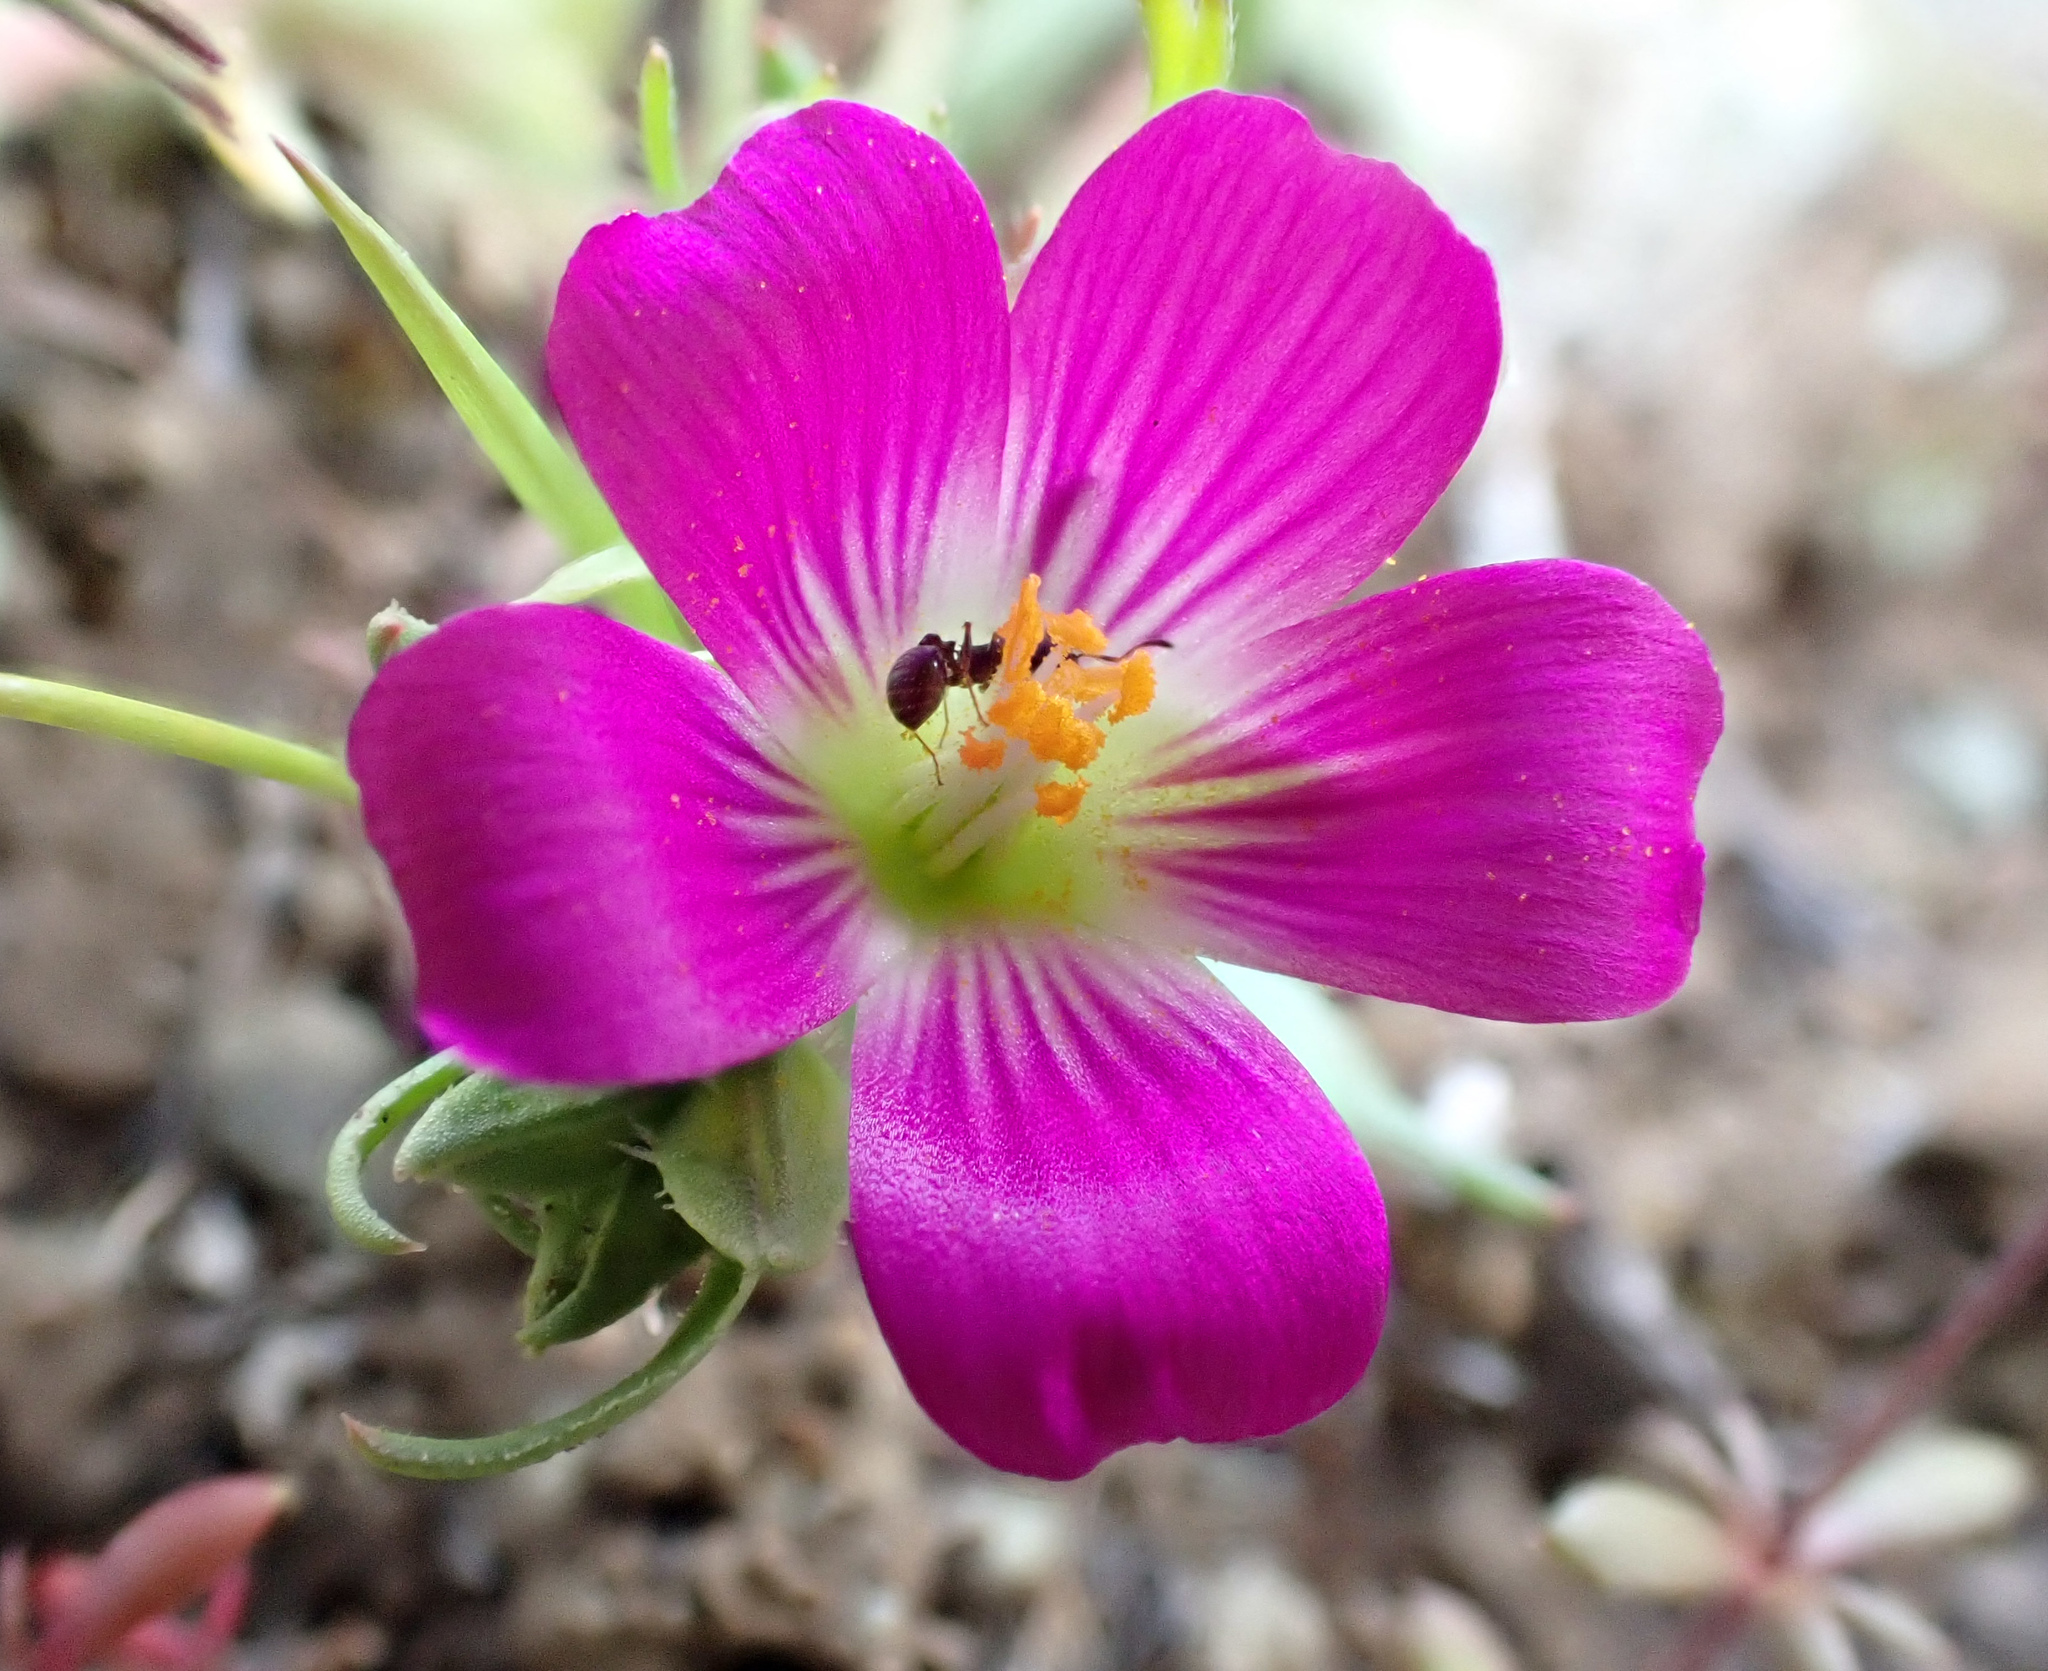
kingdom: Plantae
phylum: Tracheophyta
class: Magnoliopsida
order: Caryophyllales
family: Montiaceae
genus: Calandrinia
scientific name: Calandrinia menziesii
